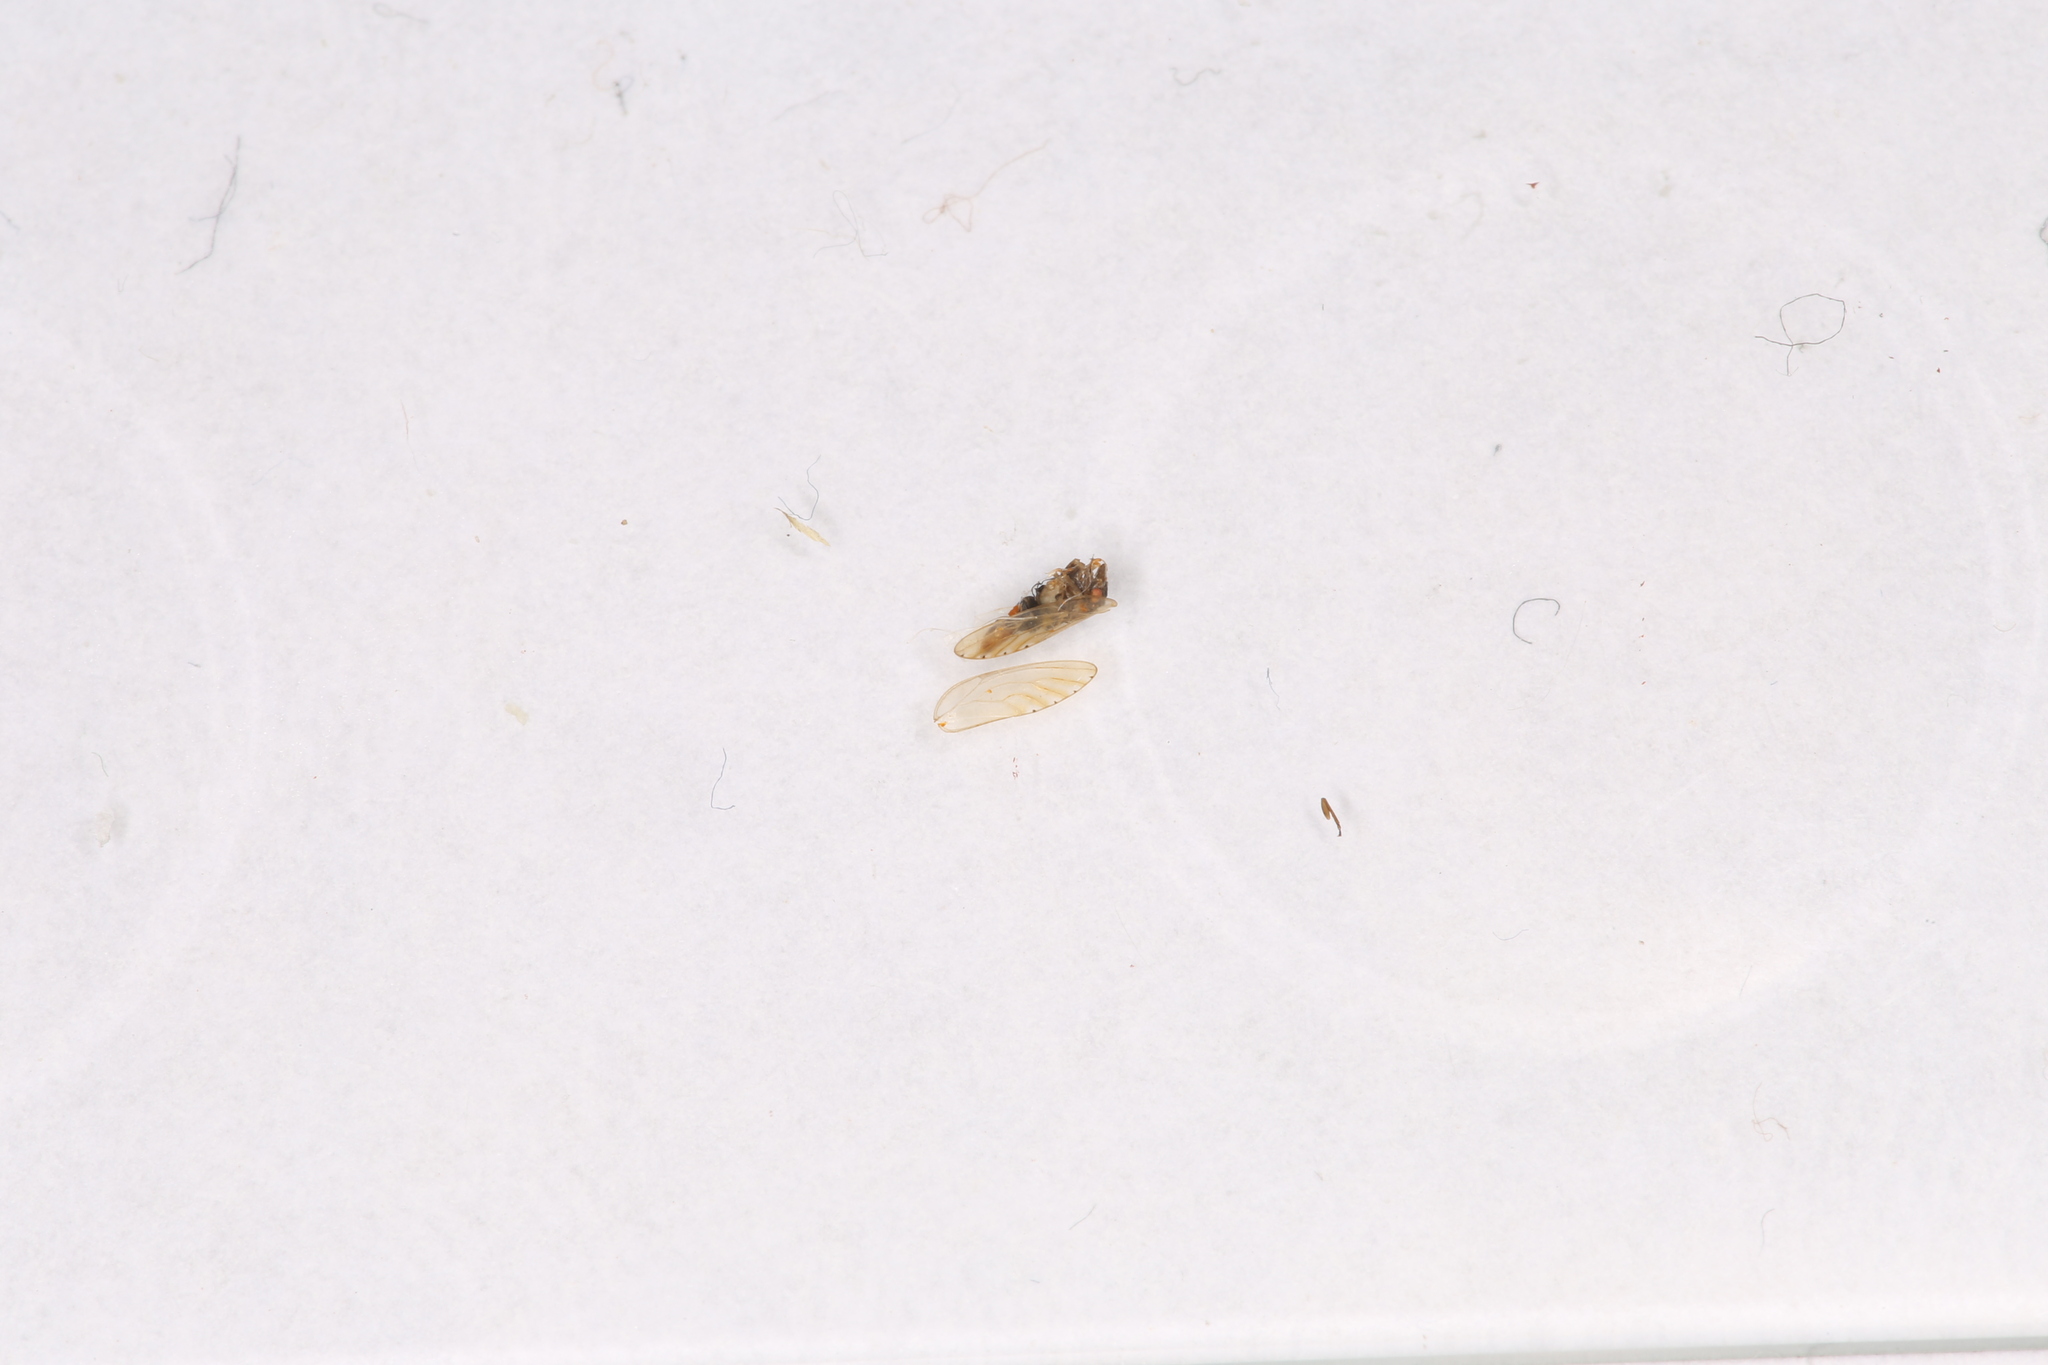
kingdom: Animalia
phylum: Arthropoda
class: Insecta
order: Hemiptera
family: Psyllidae
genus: Spanioneura
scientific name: Spanioneura fonscolombii
